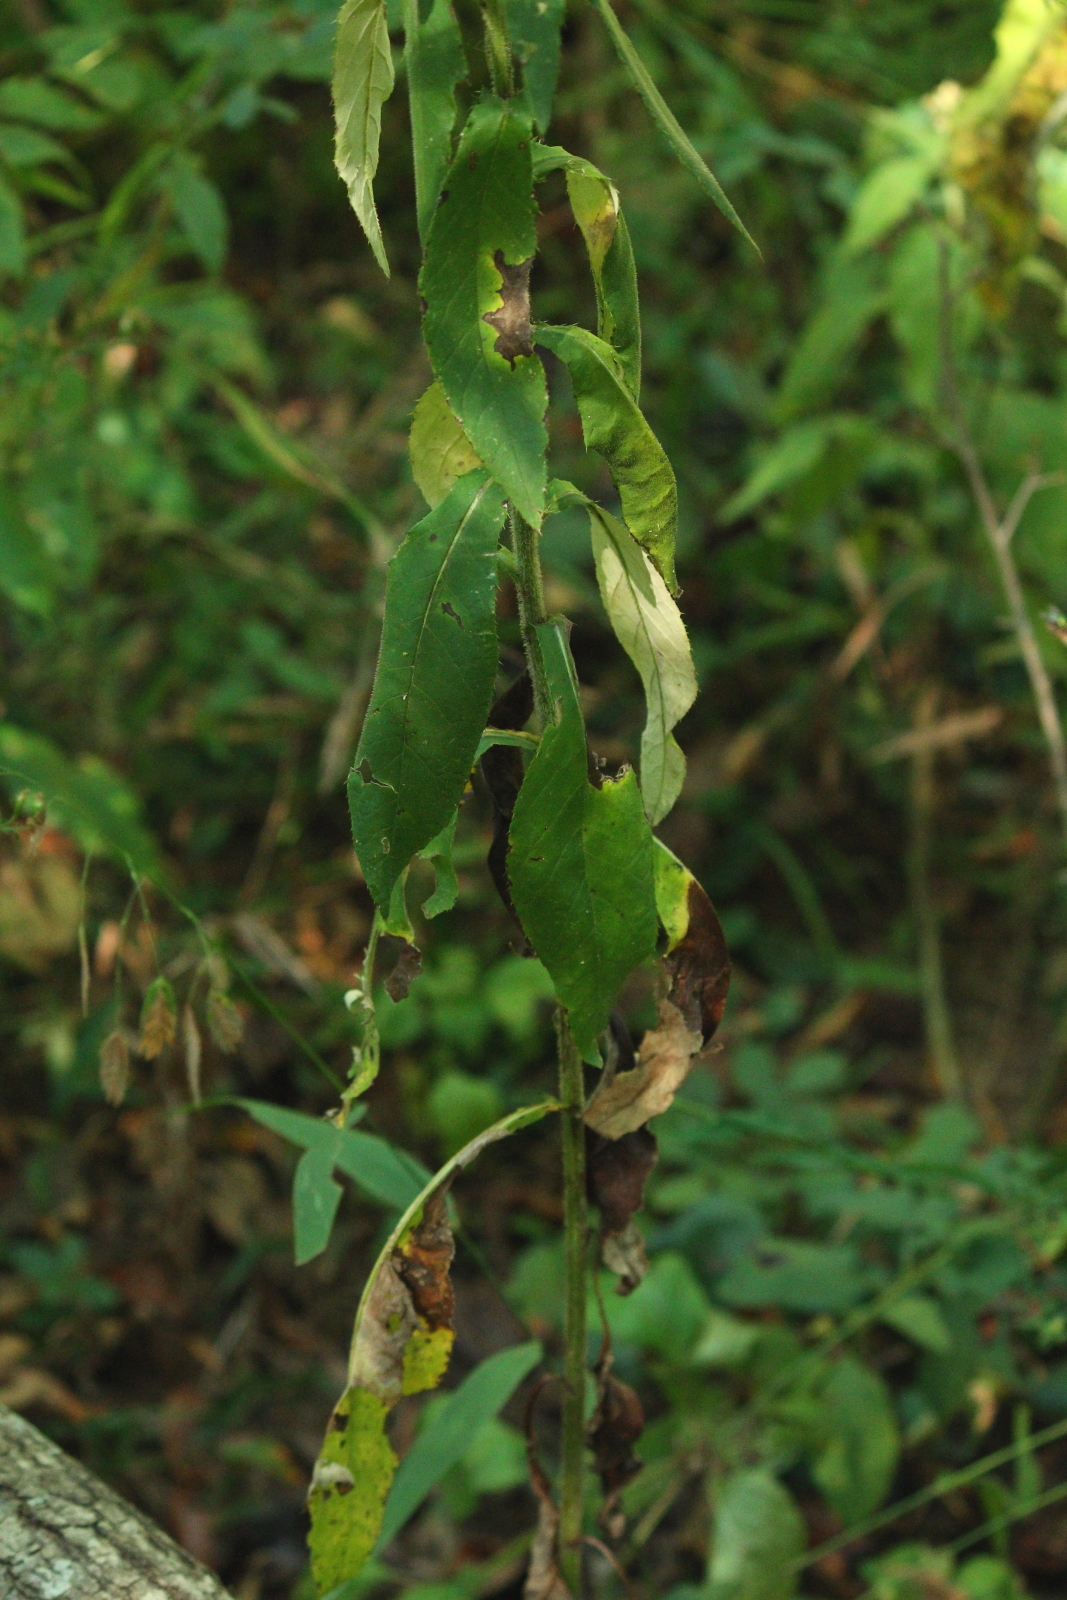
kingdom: Plantae
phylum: Tracheophyta
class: Magnoliopsida
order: Asterales
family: Asteraceae
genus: Cirsium
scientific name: Cirsium altissimum
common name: Roadside thistle
